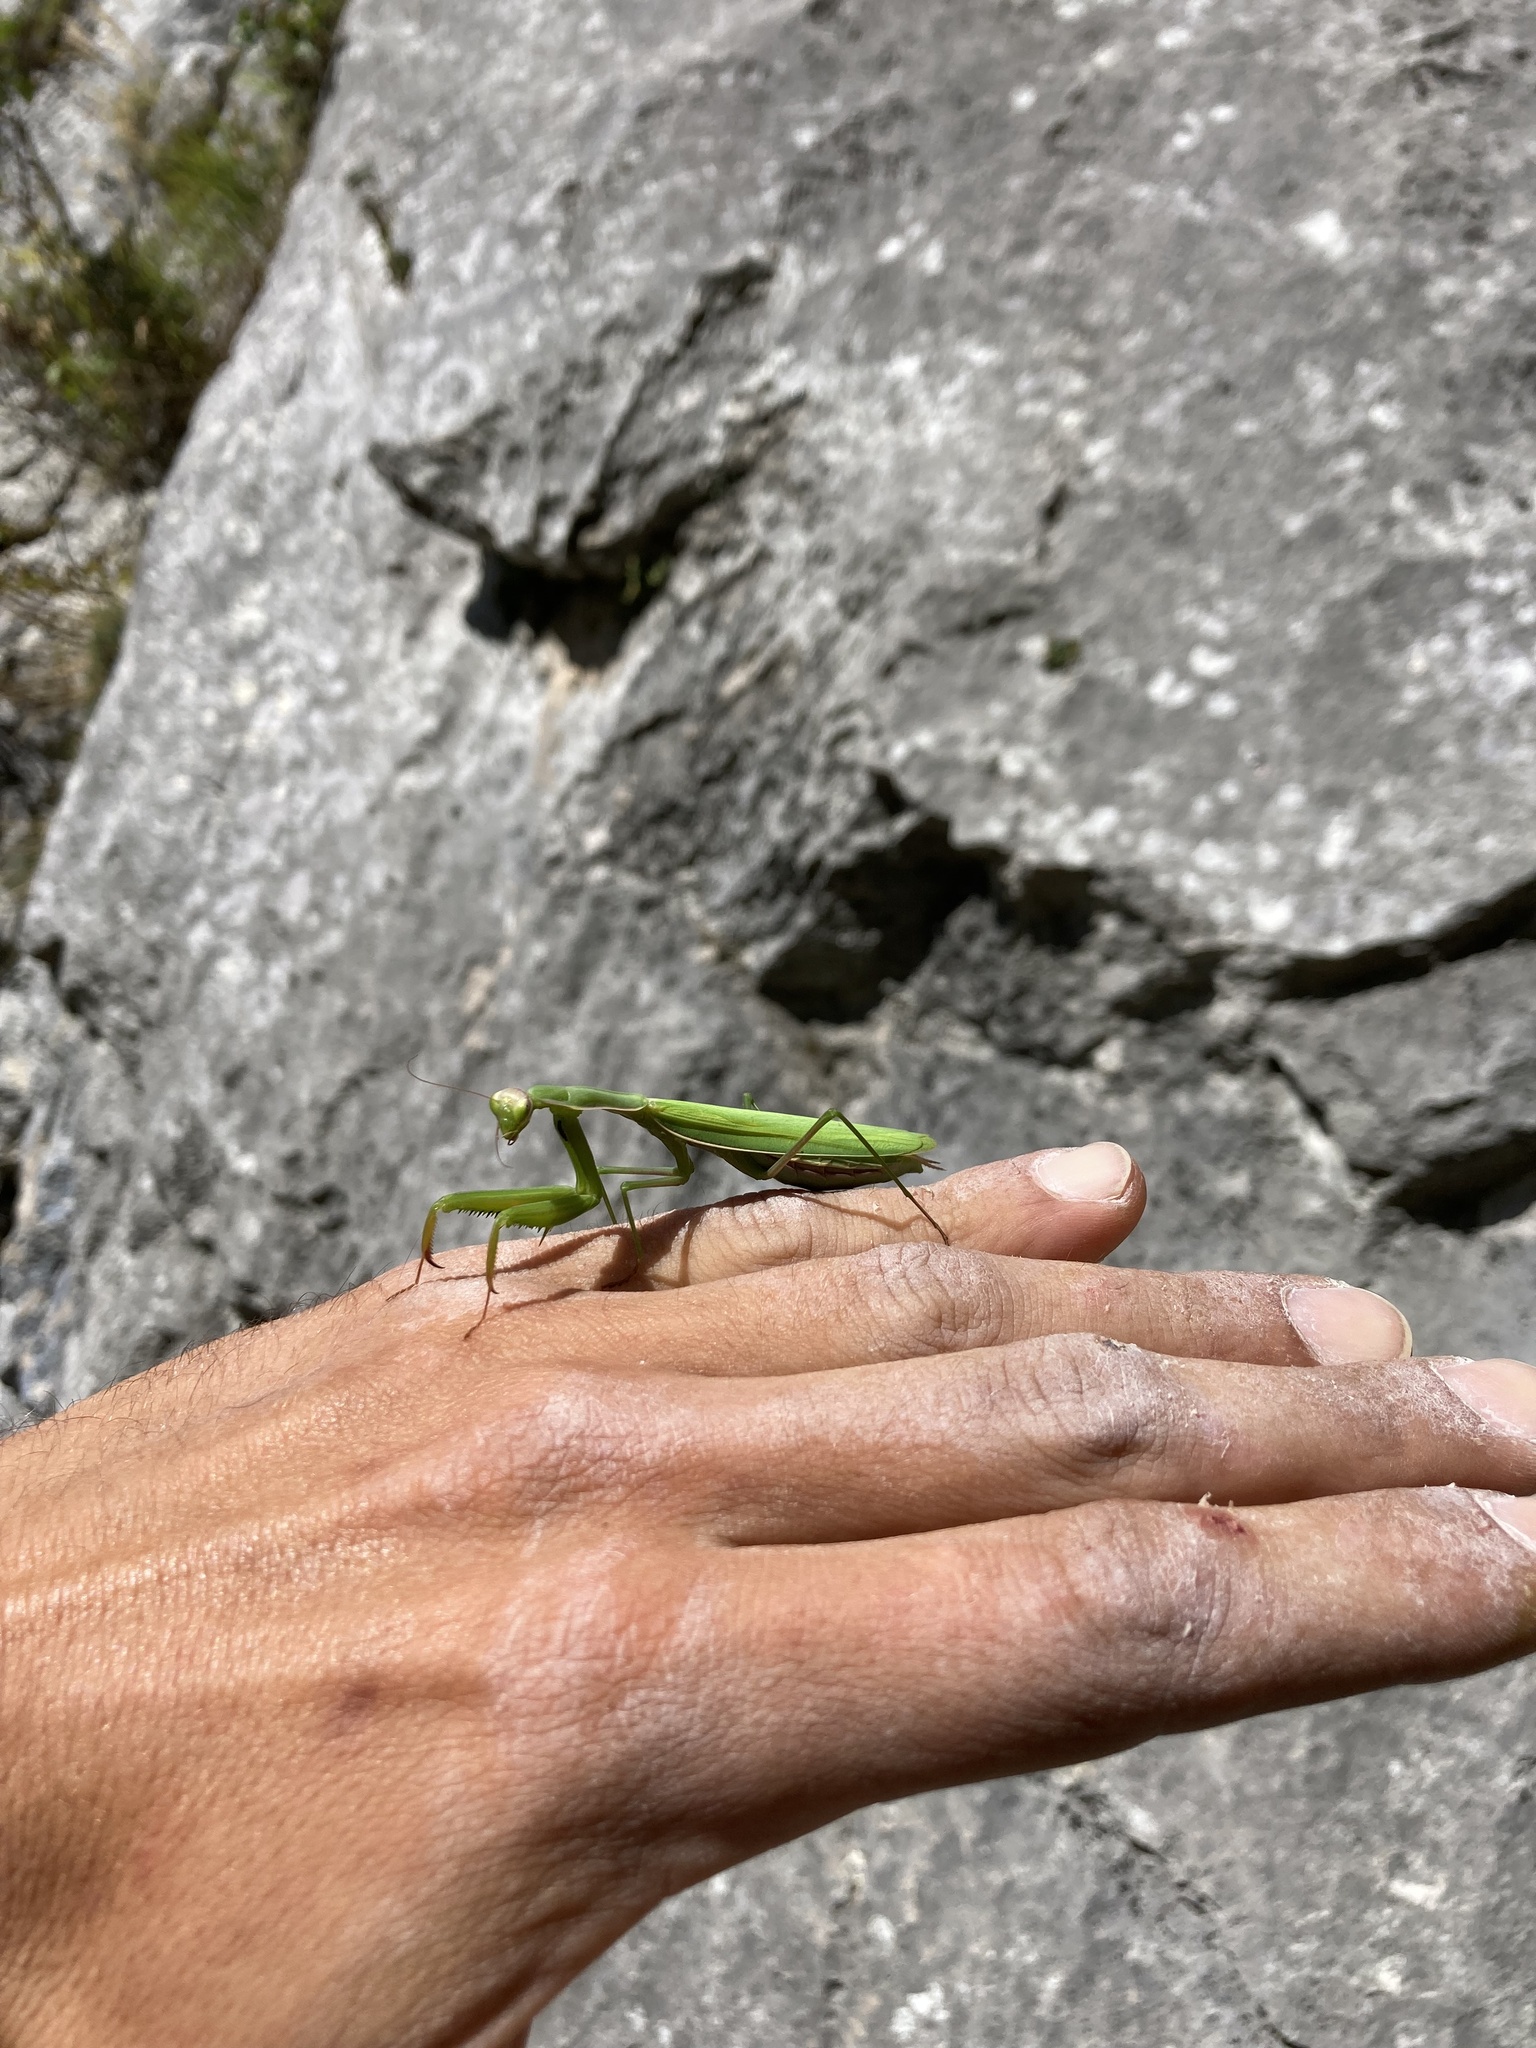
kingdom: Animalia
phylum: Arthropoda
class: Insecta
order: Mantodea
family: Mantidae
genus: Mantis
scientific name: Mantis religiosa
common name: Praying mantis
